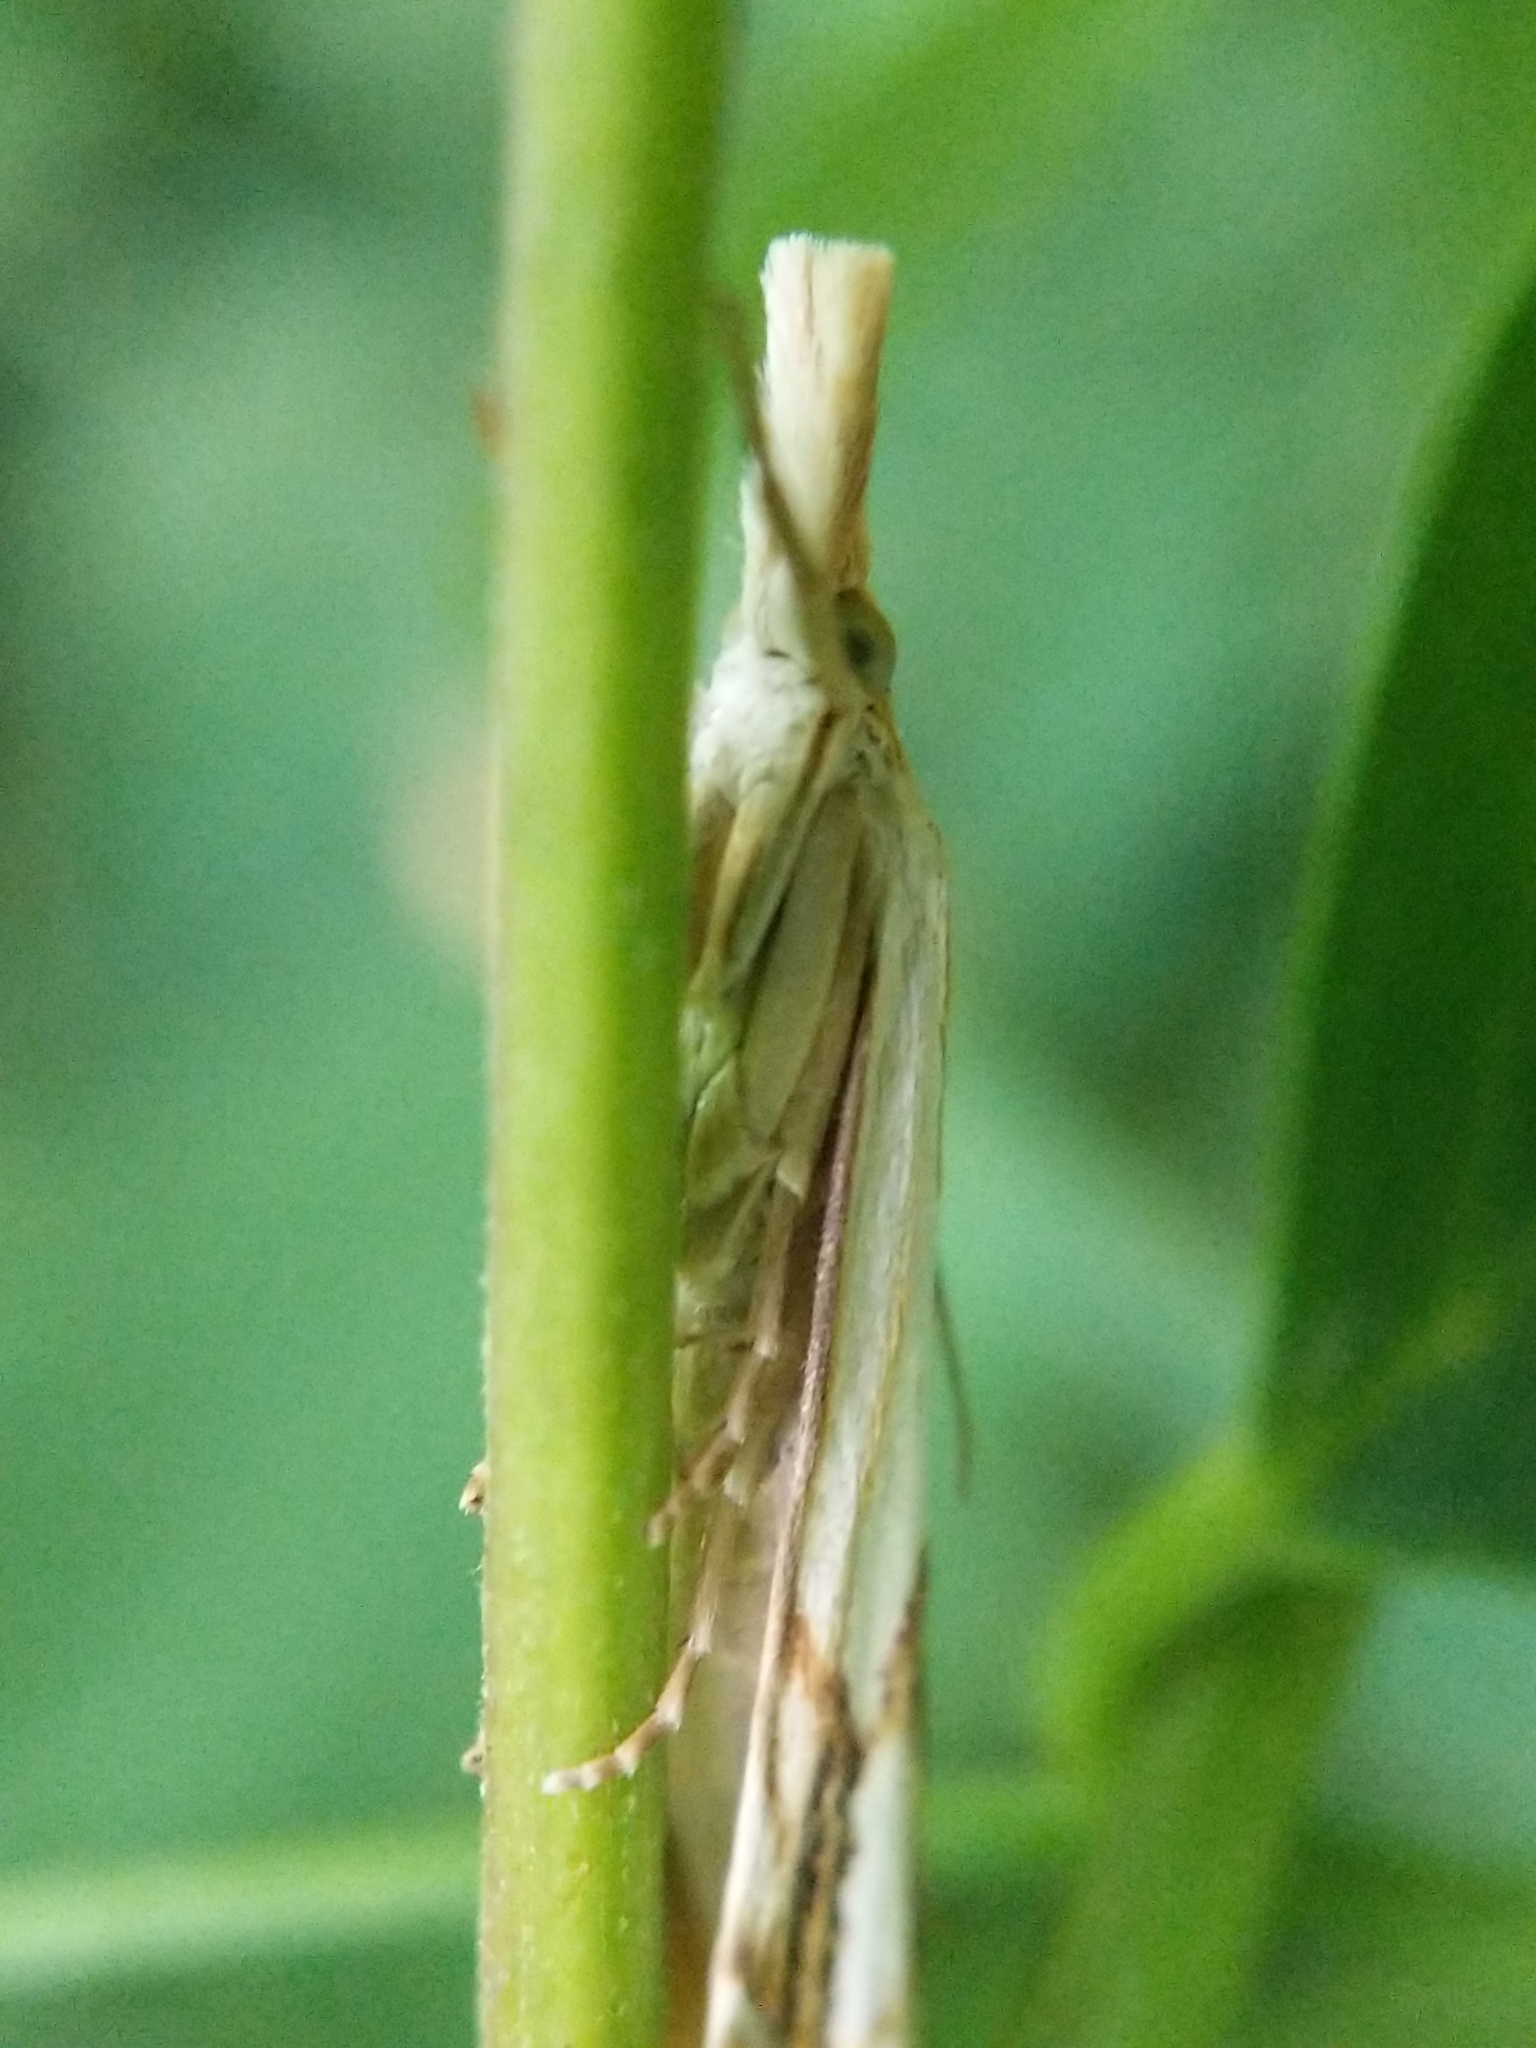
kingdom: Animalia
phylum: Arthropoda
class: Insecta
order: Lepidoptera
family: Crambidae
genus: Crambus
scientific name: Crambus
